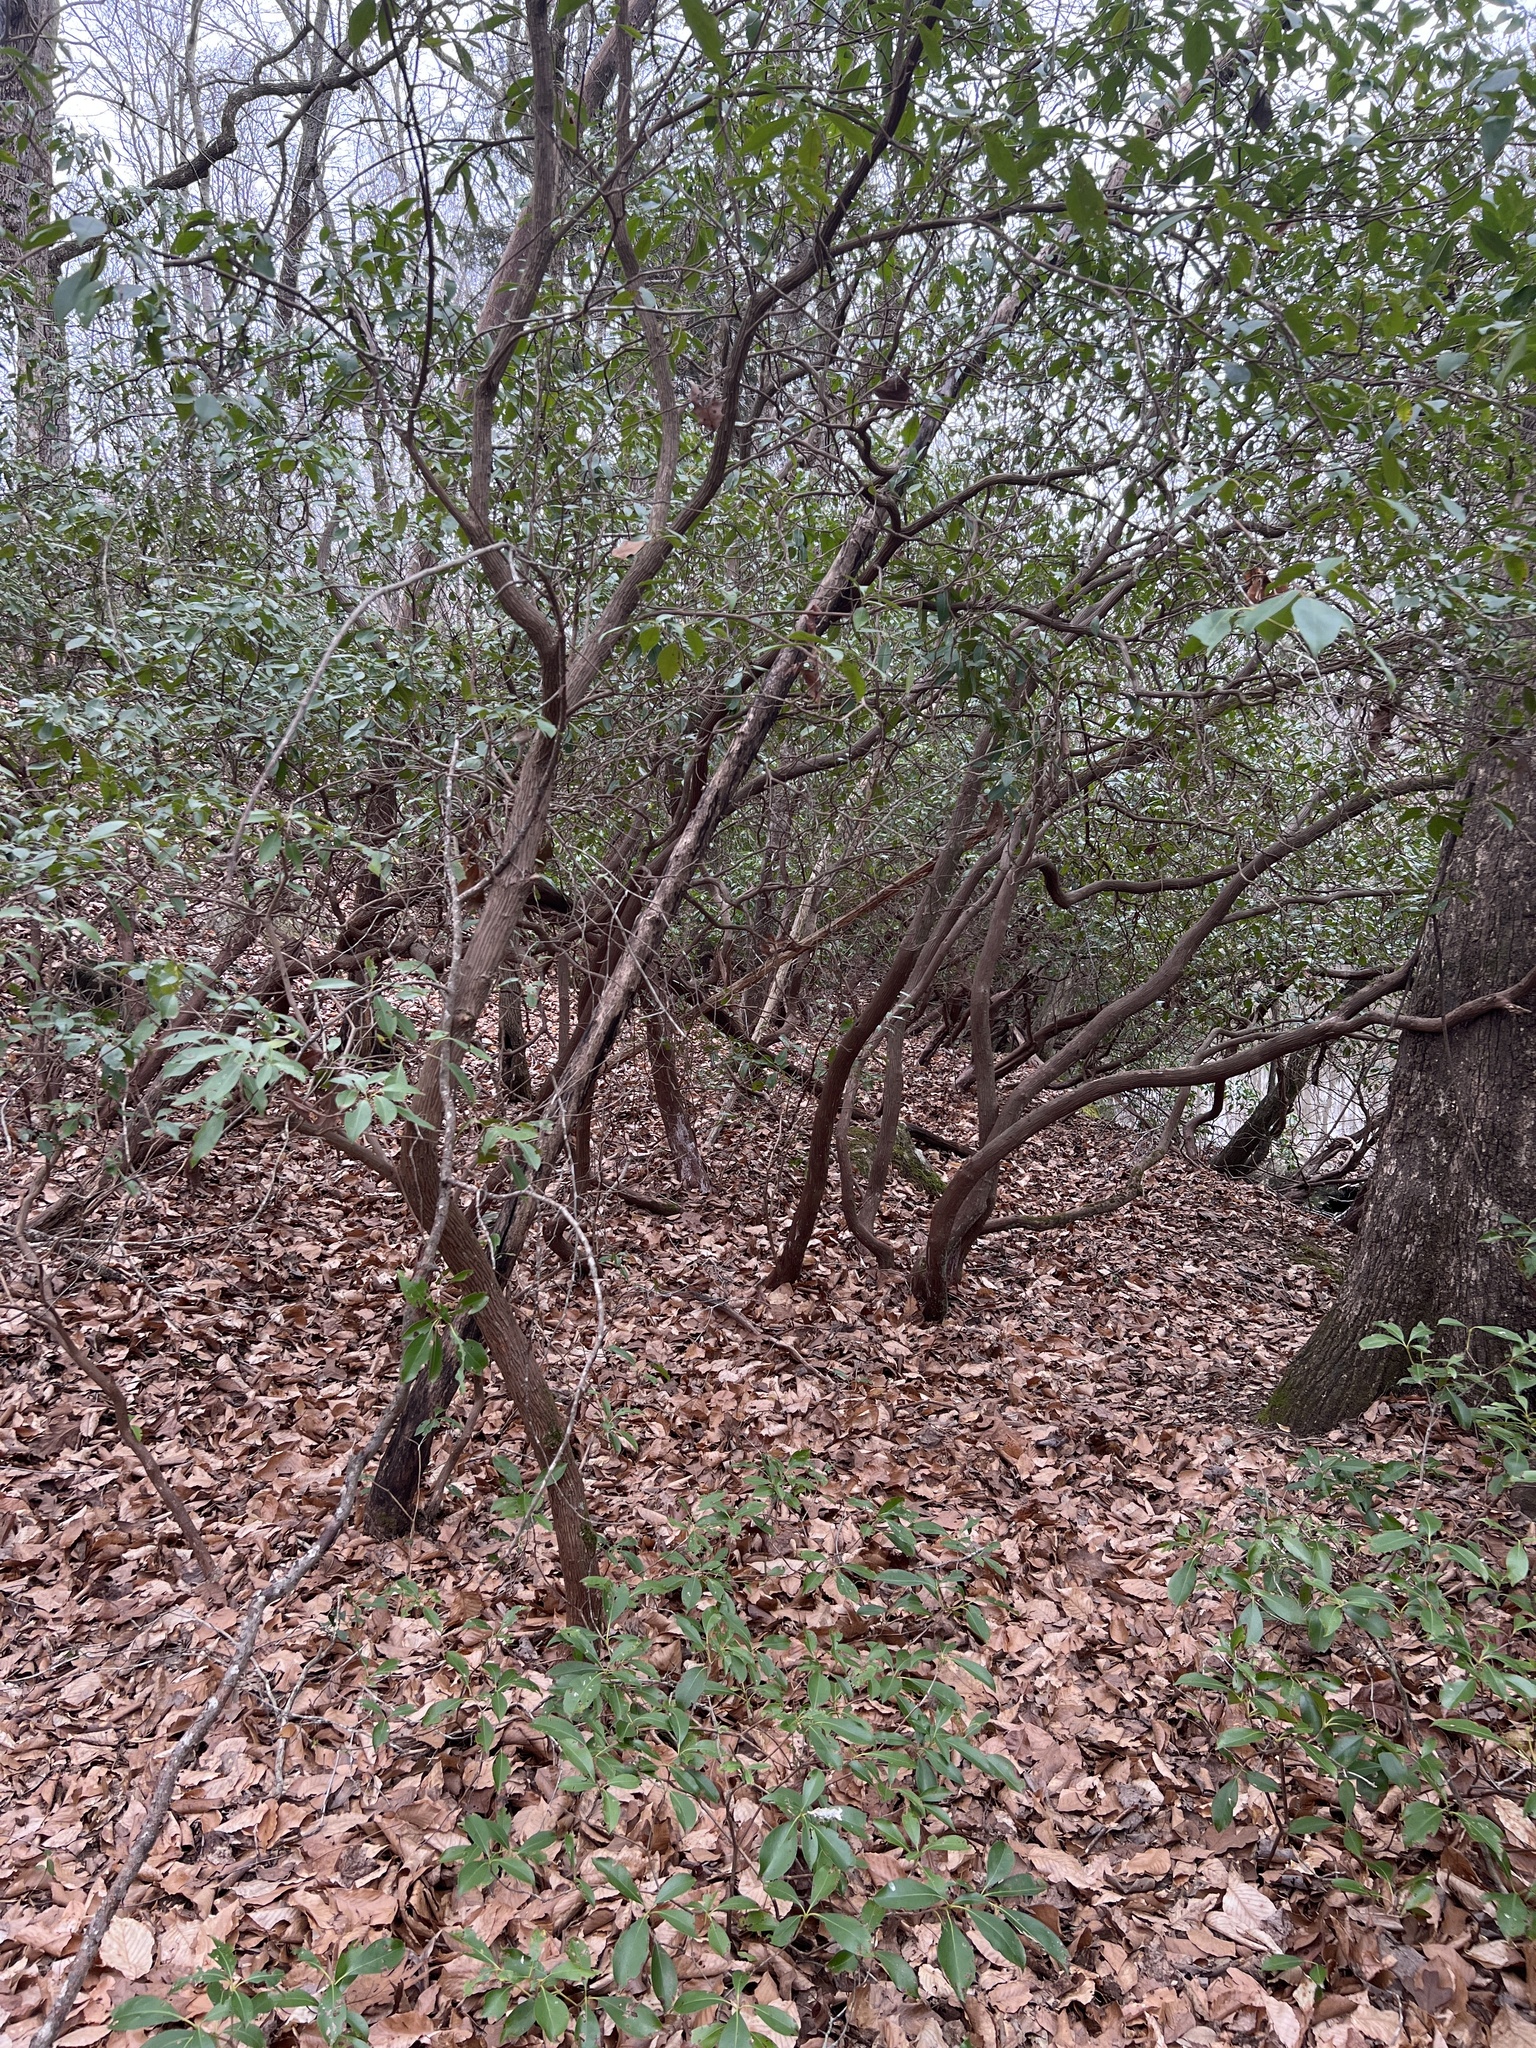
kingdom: Plantae
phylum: Tracheophyta
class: Magnoliopsida
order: Ericales
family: Ericaceae
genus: Kalmia
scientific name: Kalmia latifolia
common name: Mountain-laurel
